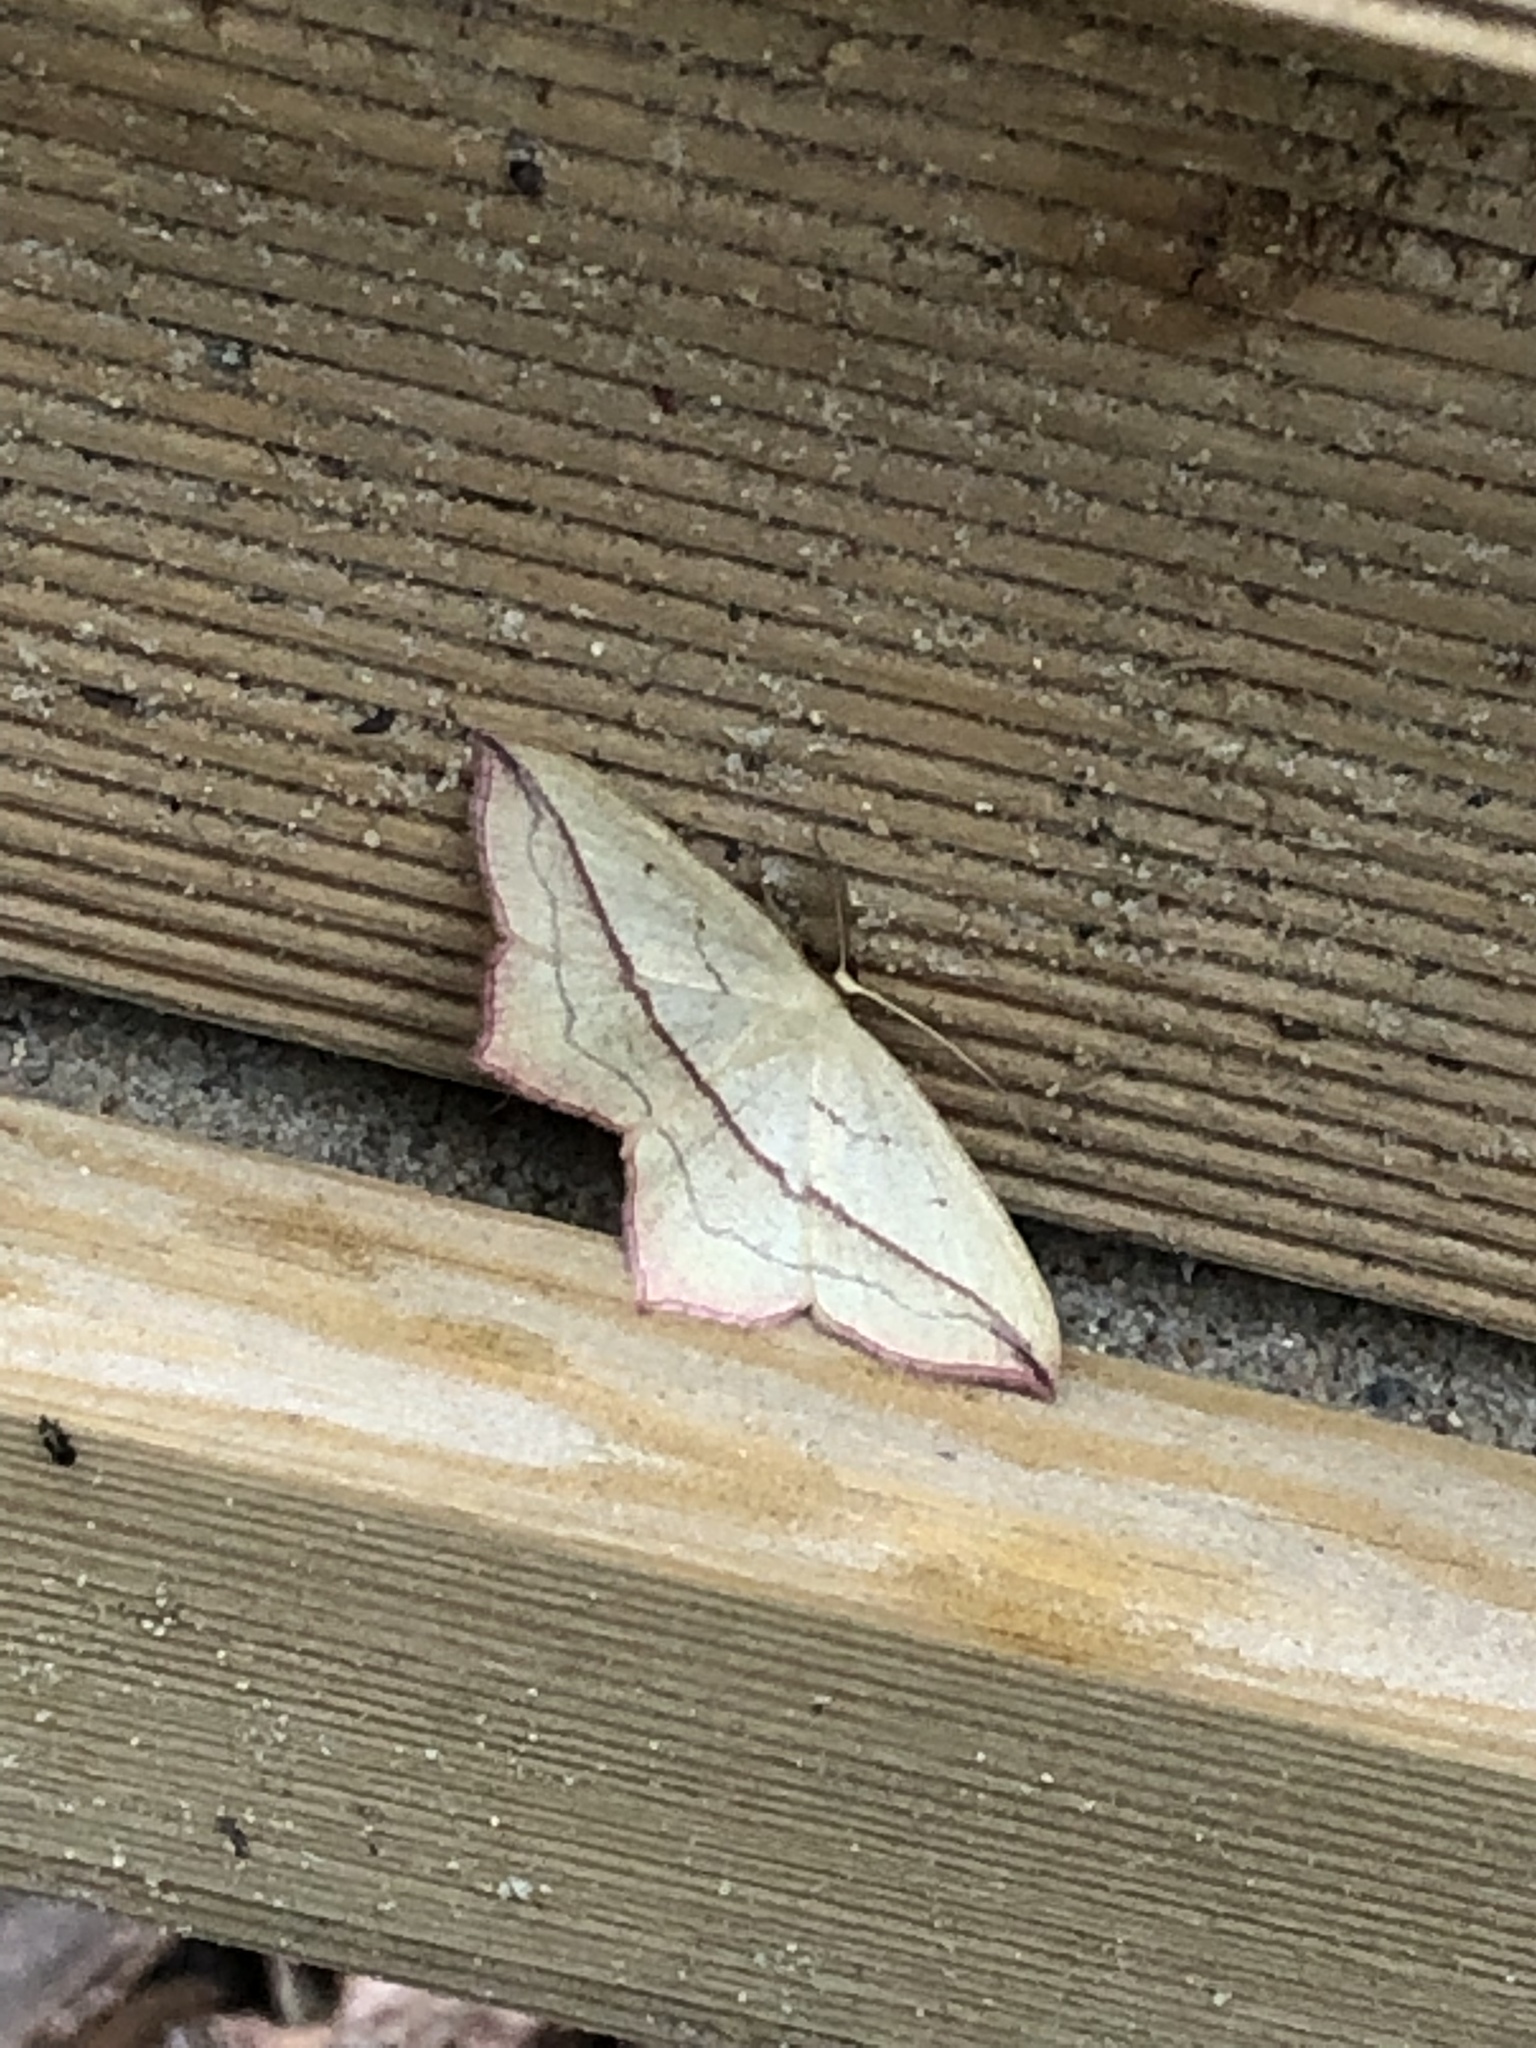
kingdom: Animalia
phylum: Arthropoda
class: Insecta
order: Lepidoptera
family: Geometridae
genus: Timandra
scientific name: Timandra comae
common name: Blood-vein
